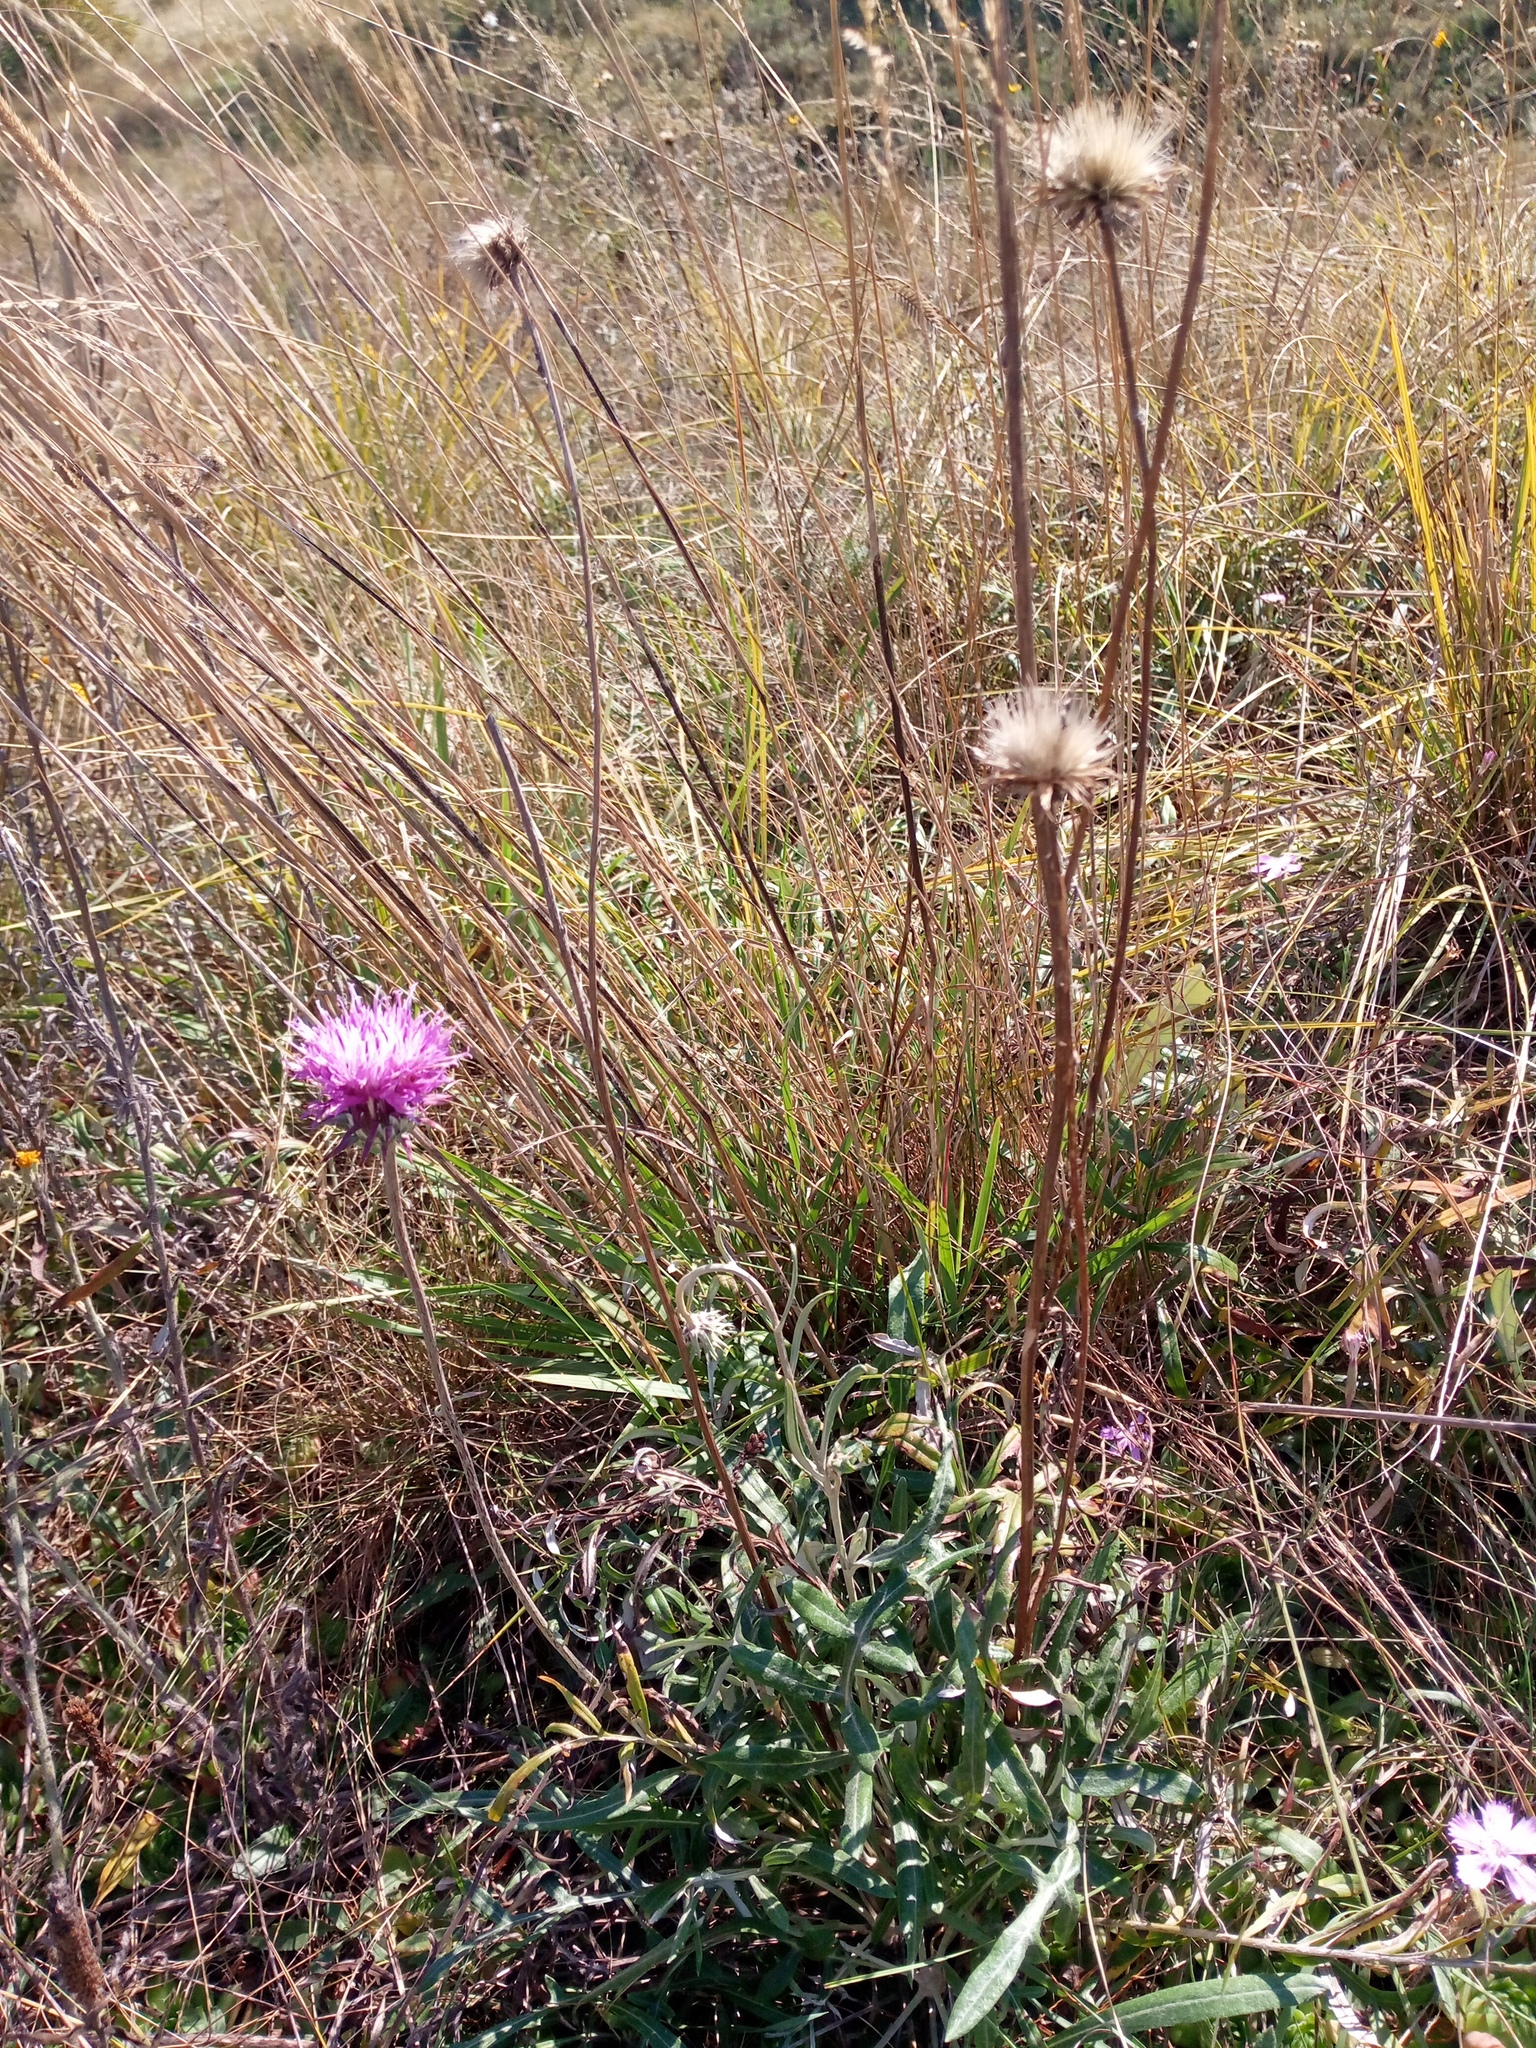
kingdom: Plantae
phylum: Tracheophyta
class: Magnoliopsida
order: Asterales
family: Asteraceae
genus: Jurinea
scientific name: Jurinea cyanoides
